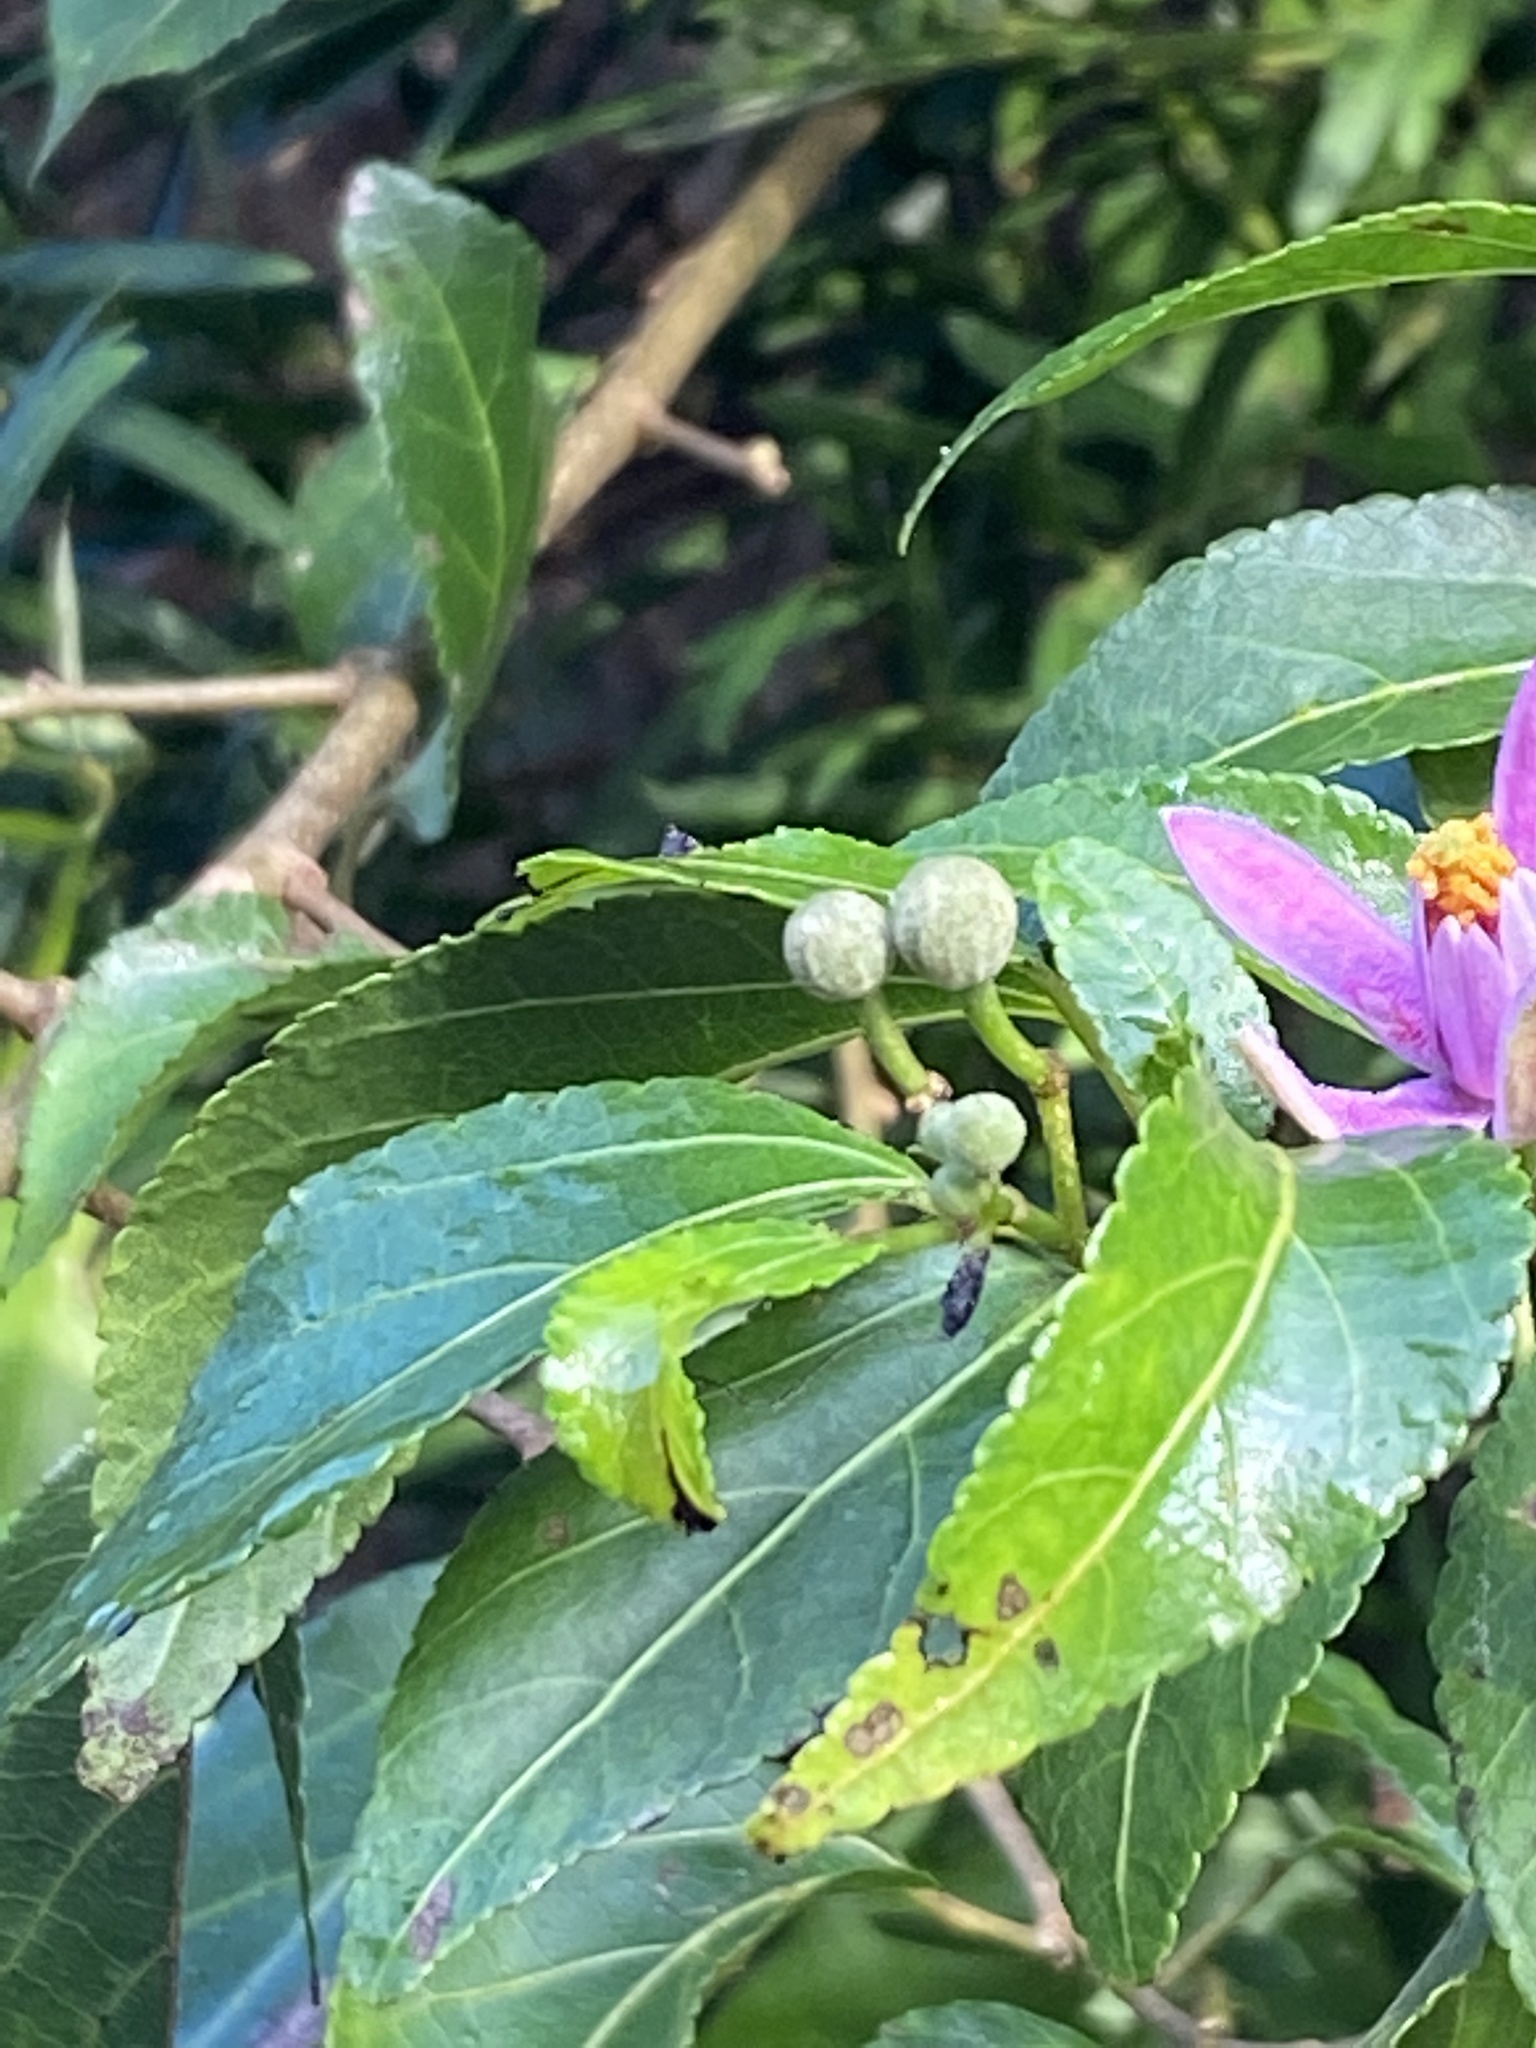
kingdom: Plantae
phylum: Tracheophyta
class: Magnoliopsida
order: Malvales
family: Malvaceae
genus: Grewia
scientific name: Grewia occidentalis
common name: Crossberry
